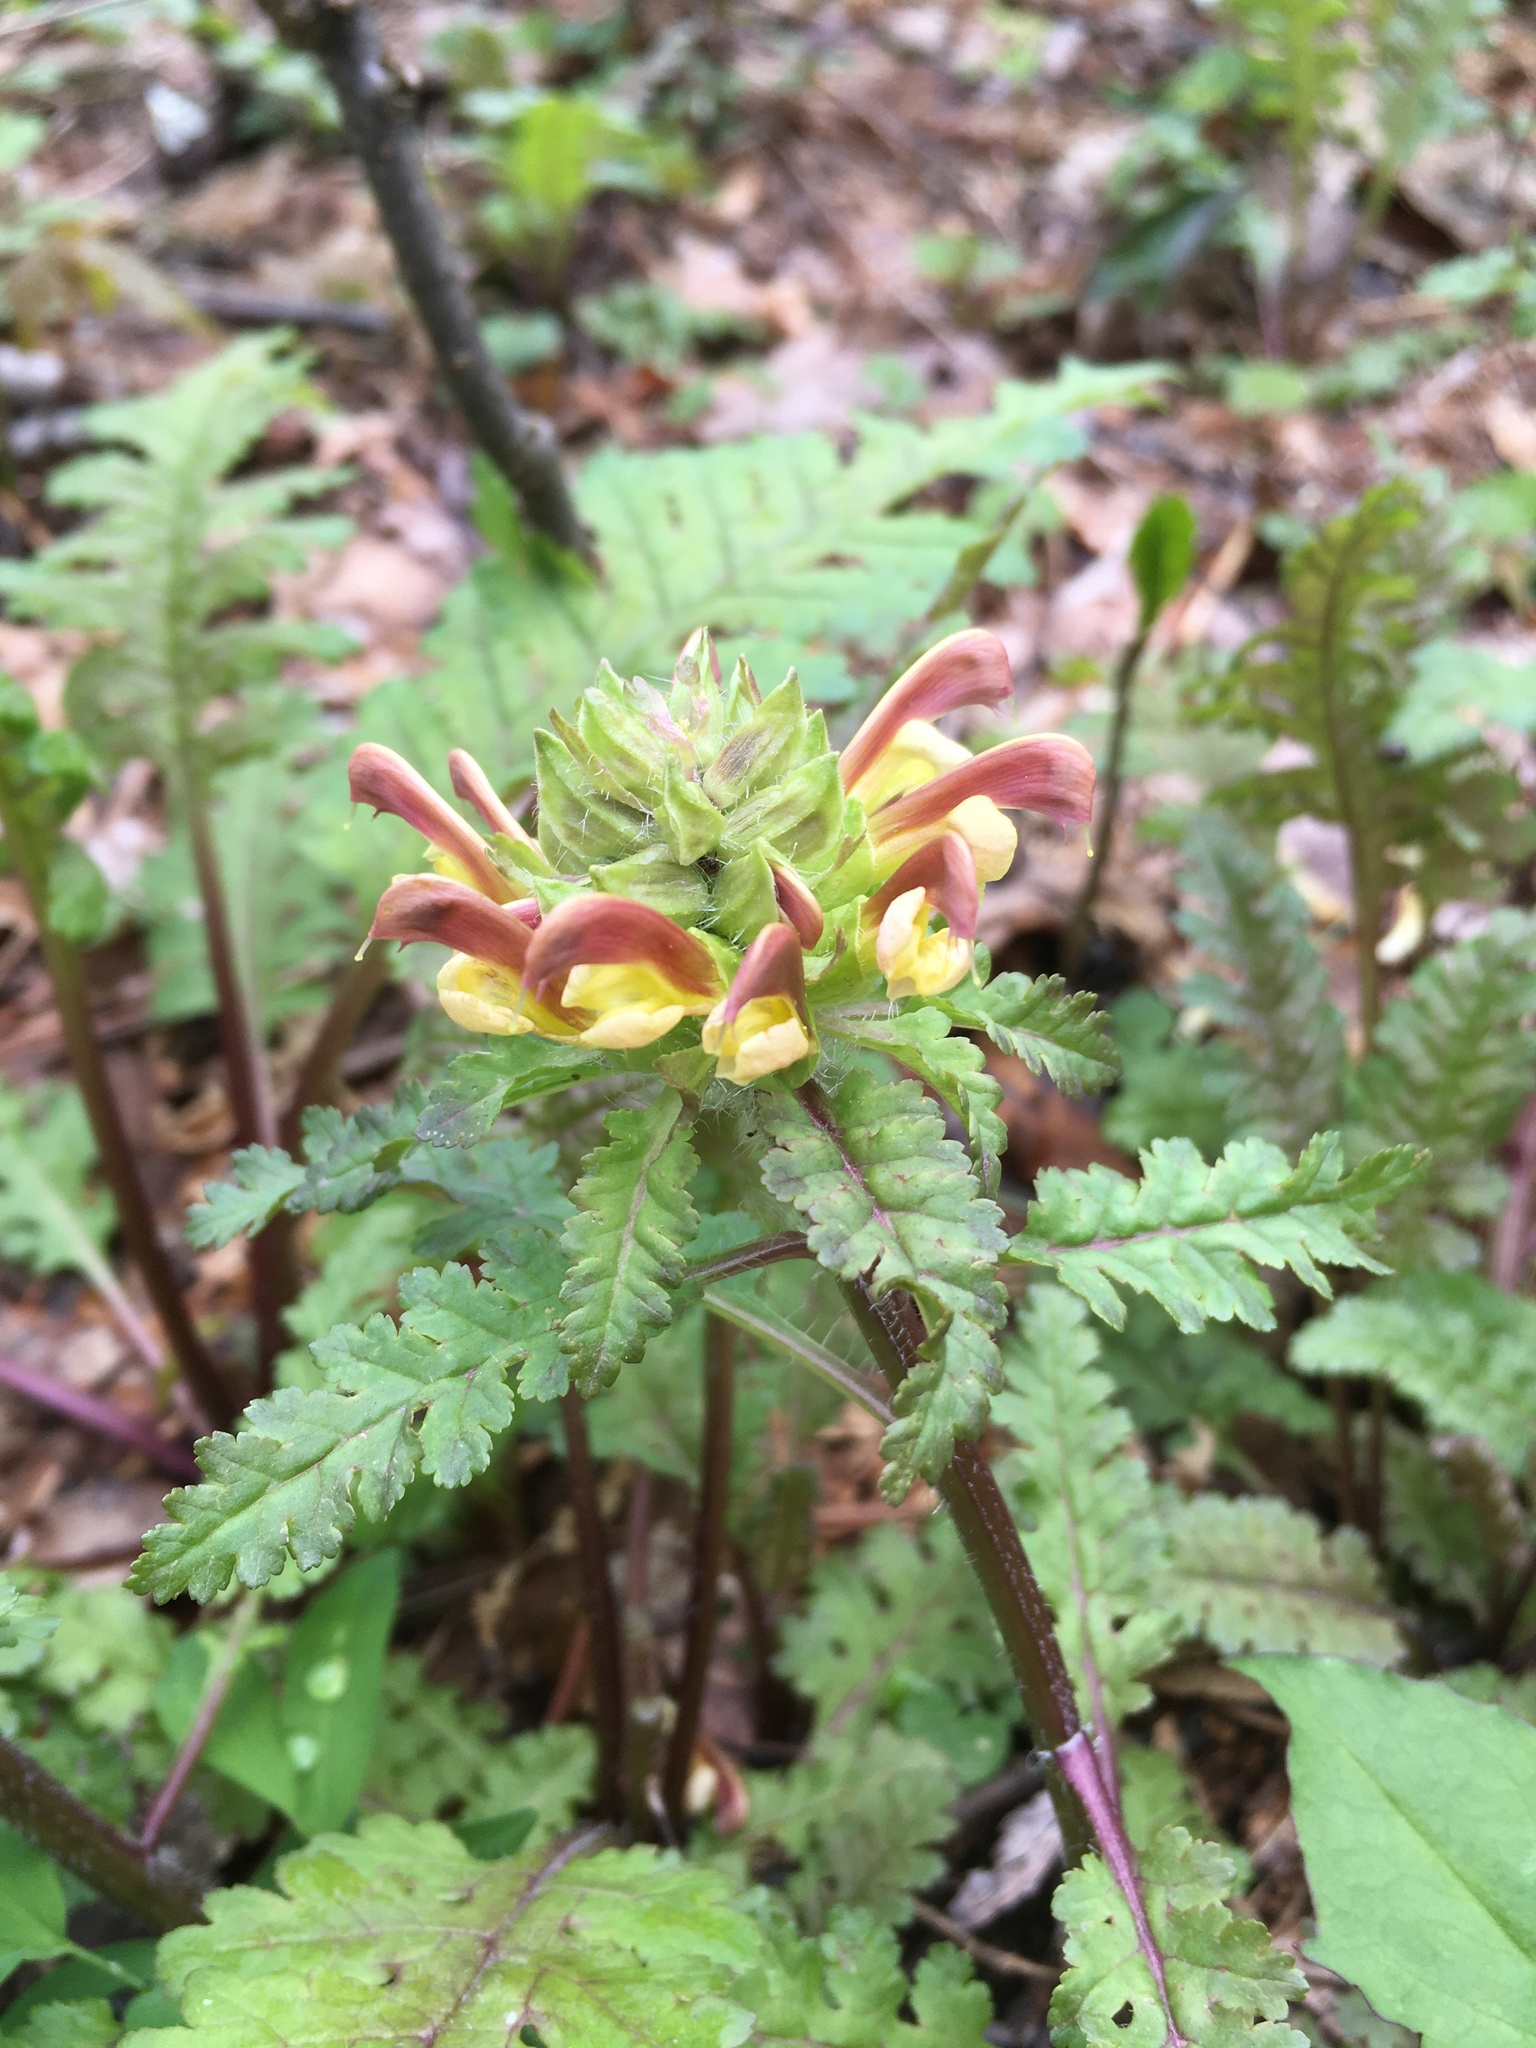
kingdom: Plantae
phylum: Tracheophyta
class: Magnoliopsida
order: Lamiales
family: Orobanchaceae
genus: Pedicularis
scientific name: Pedicularis canadensis
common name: Early lousewort
